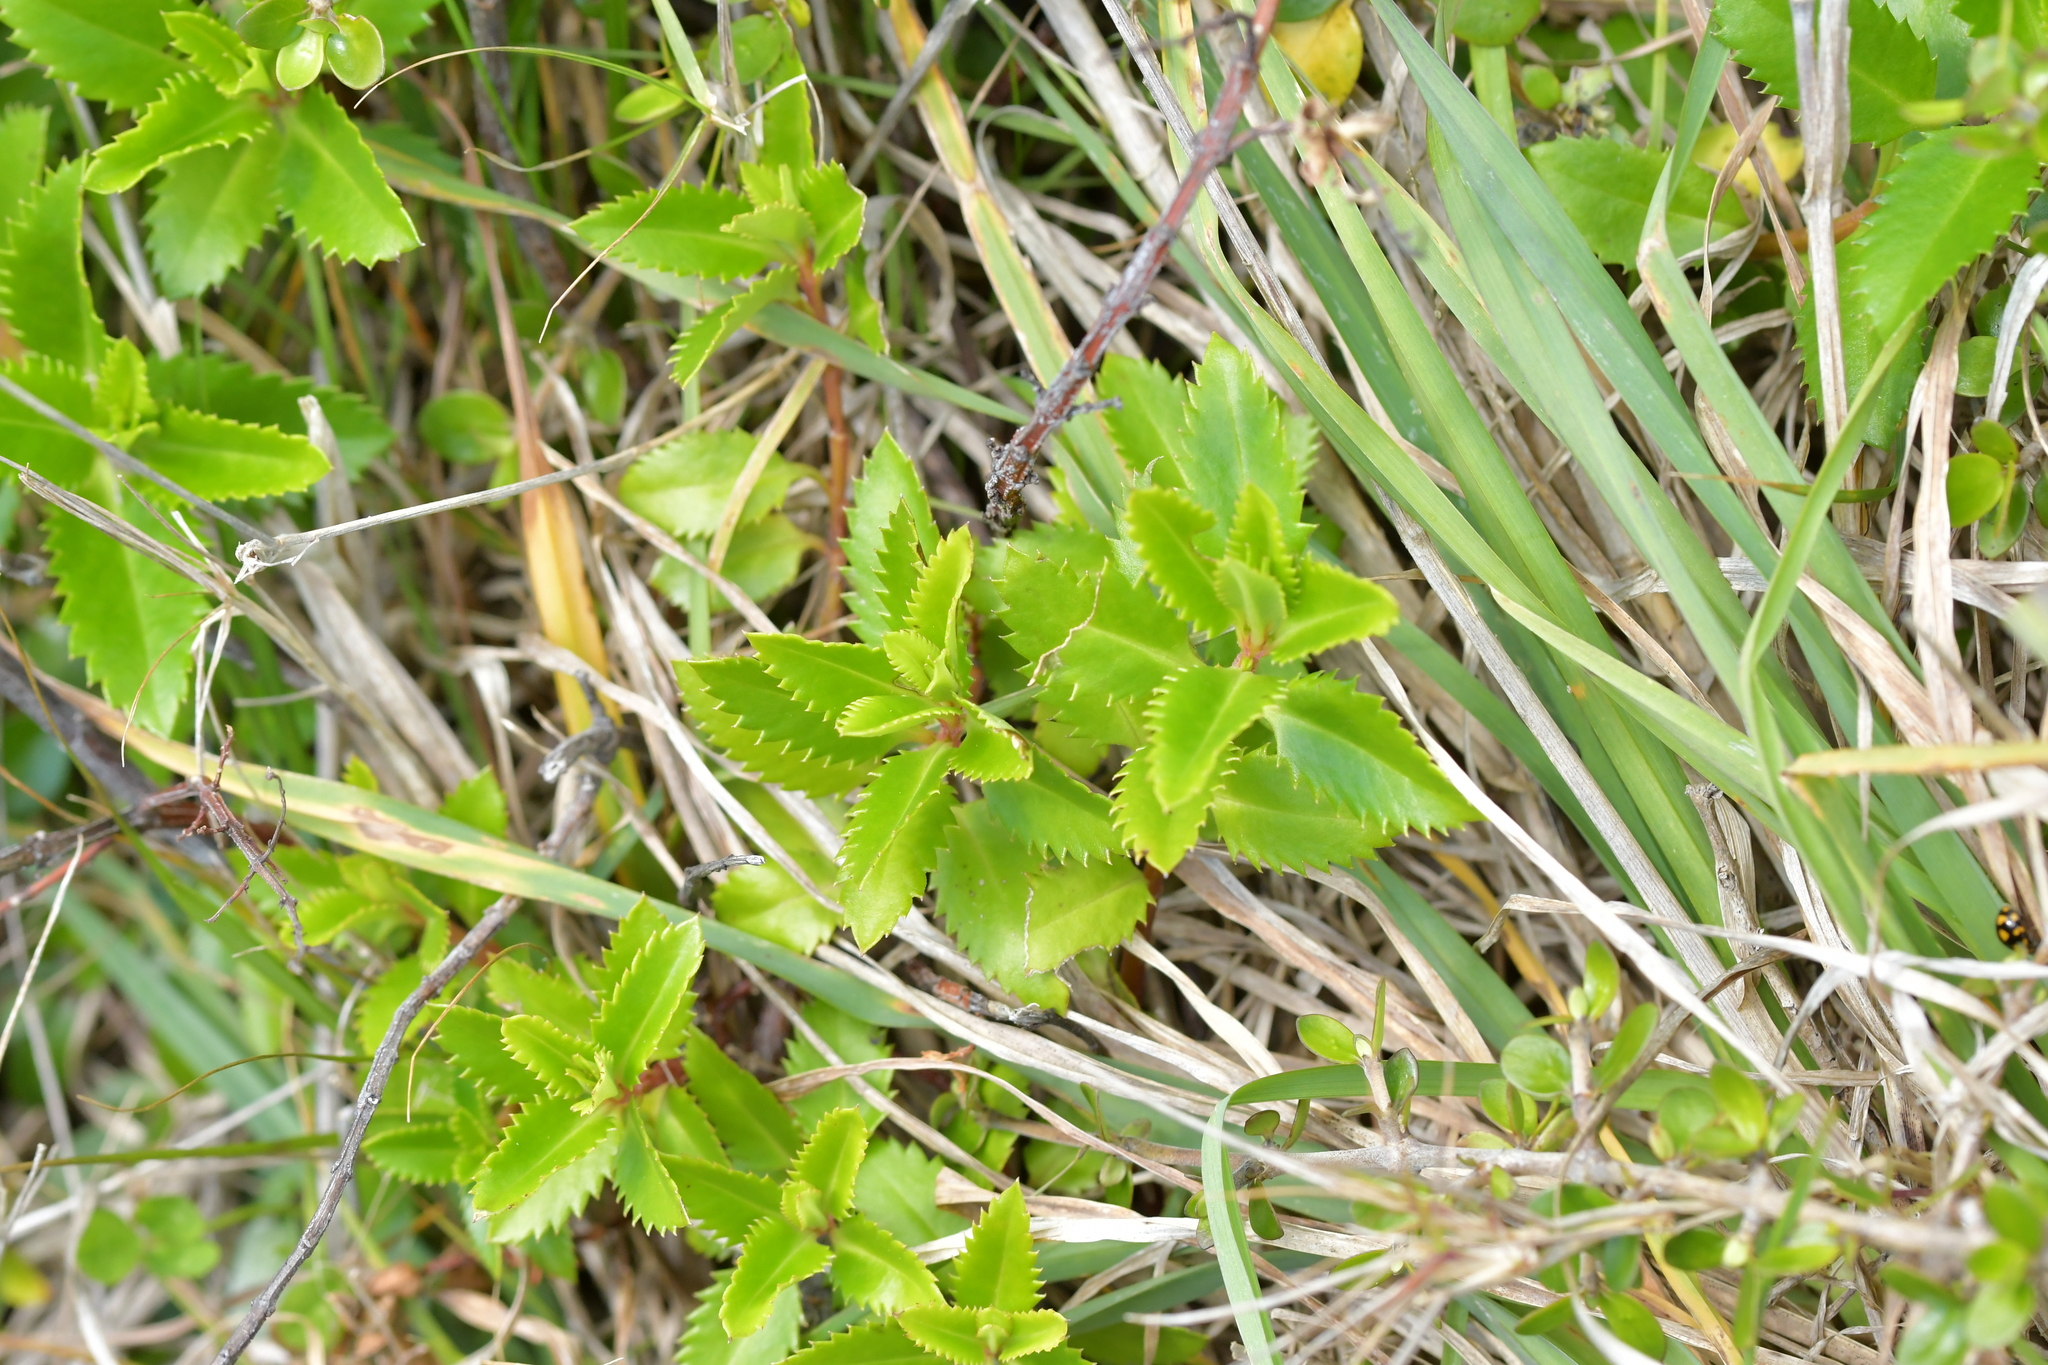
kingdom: Plantae
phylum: Tracheophyta
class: Magnoliopsida
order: Saxifragales
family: Haloragaceae
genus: Haloragis
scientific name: Haloragis erecta
